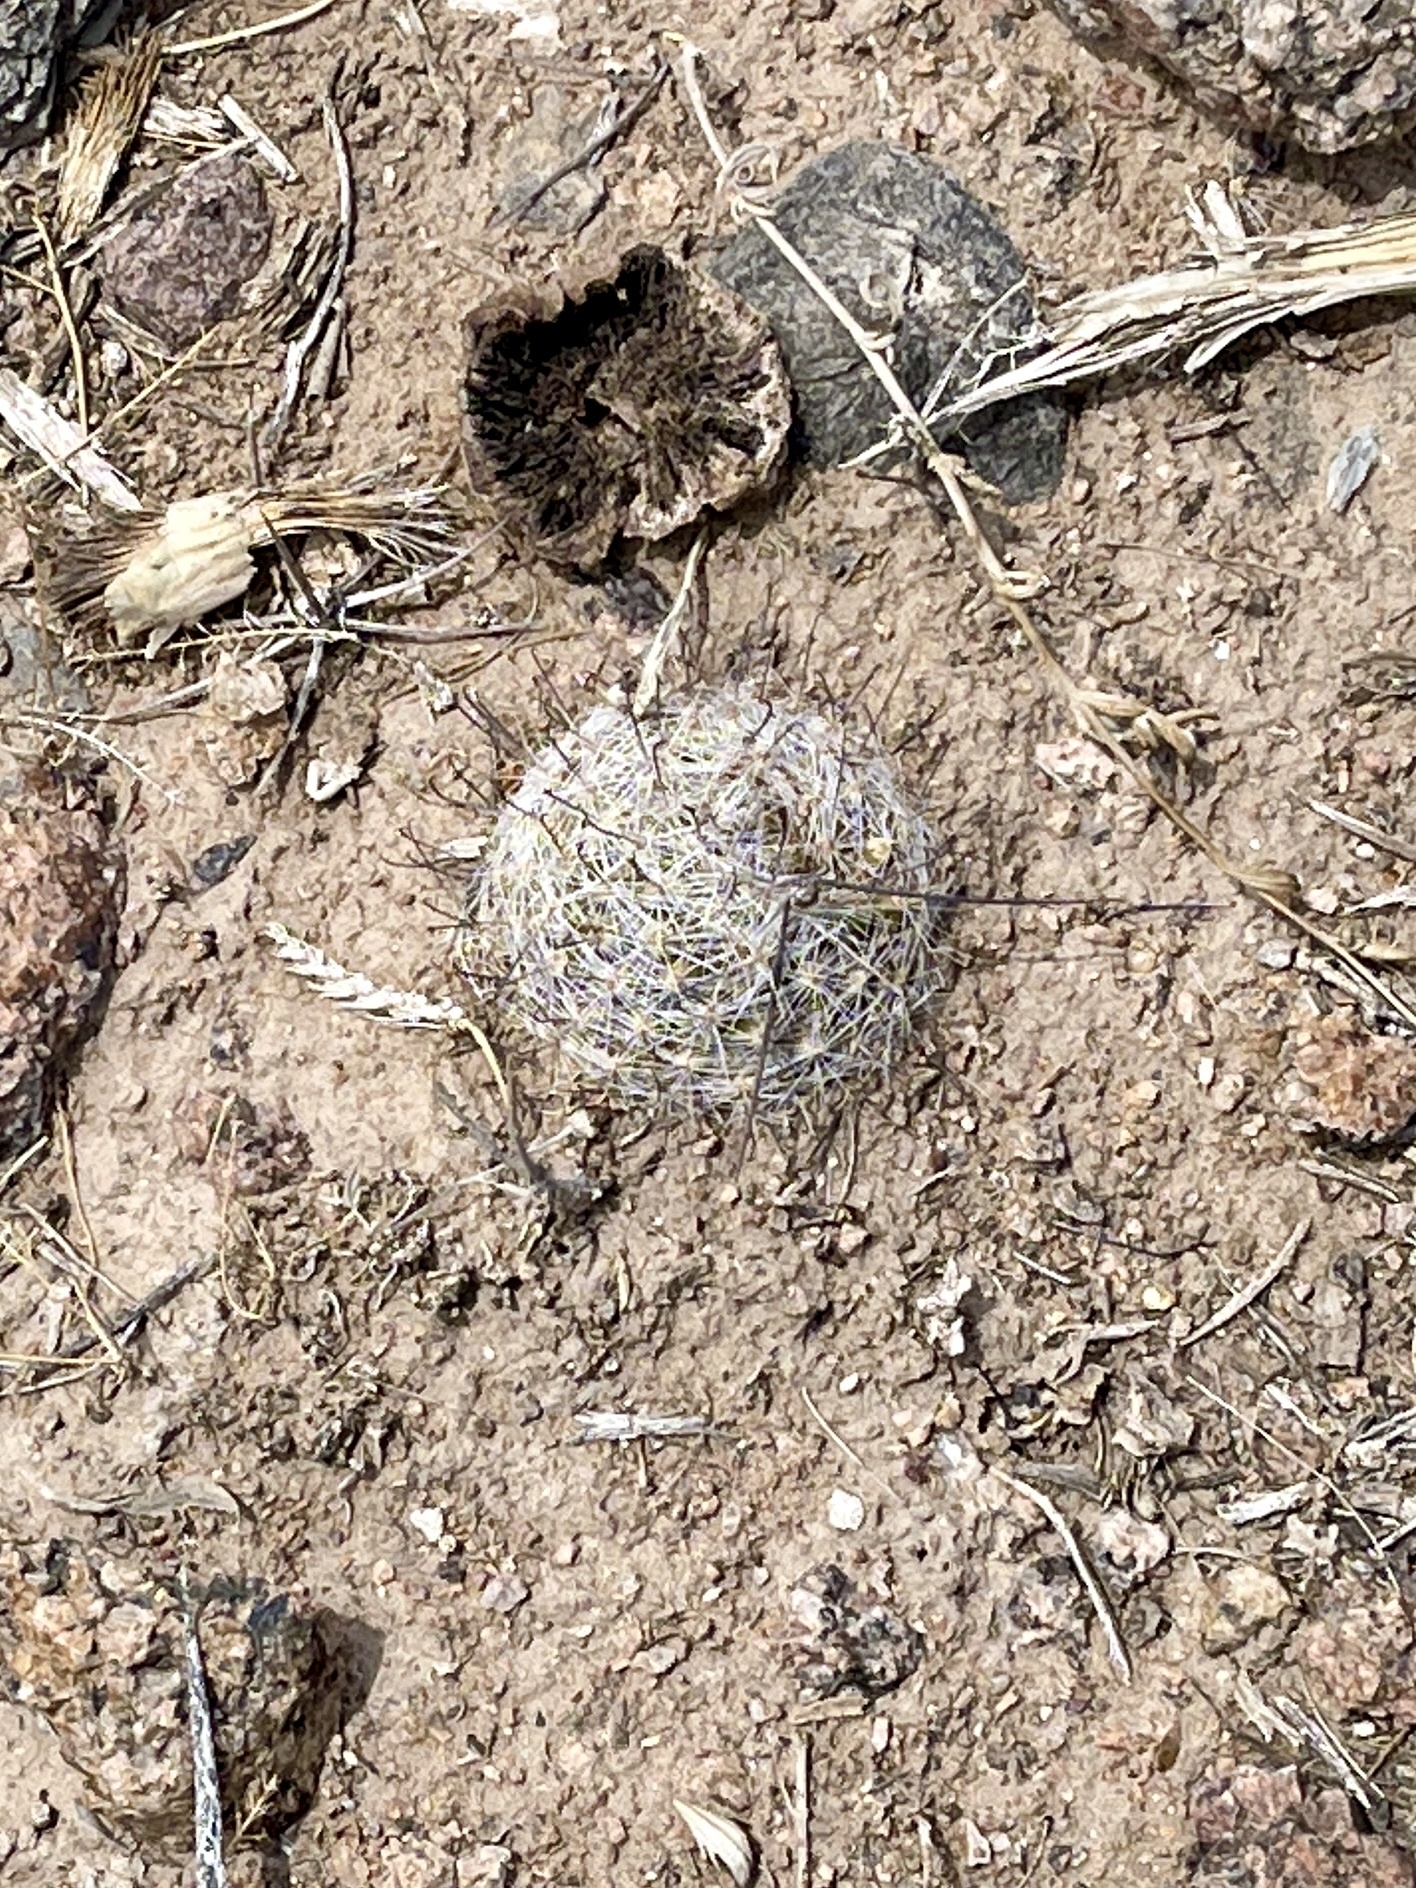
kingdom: Plantae
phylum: Tracheophyta
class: Magnoliopsida
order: Caryophyllales
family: Cactaceae
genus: Cochemiea
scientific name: Cochemiea grahamii
